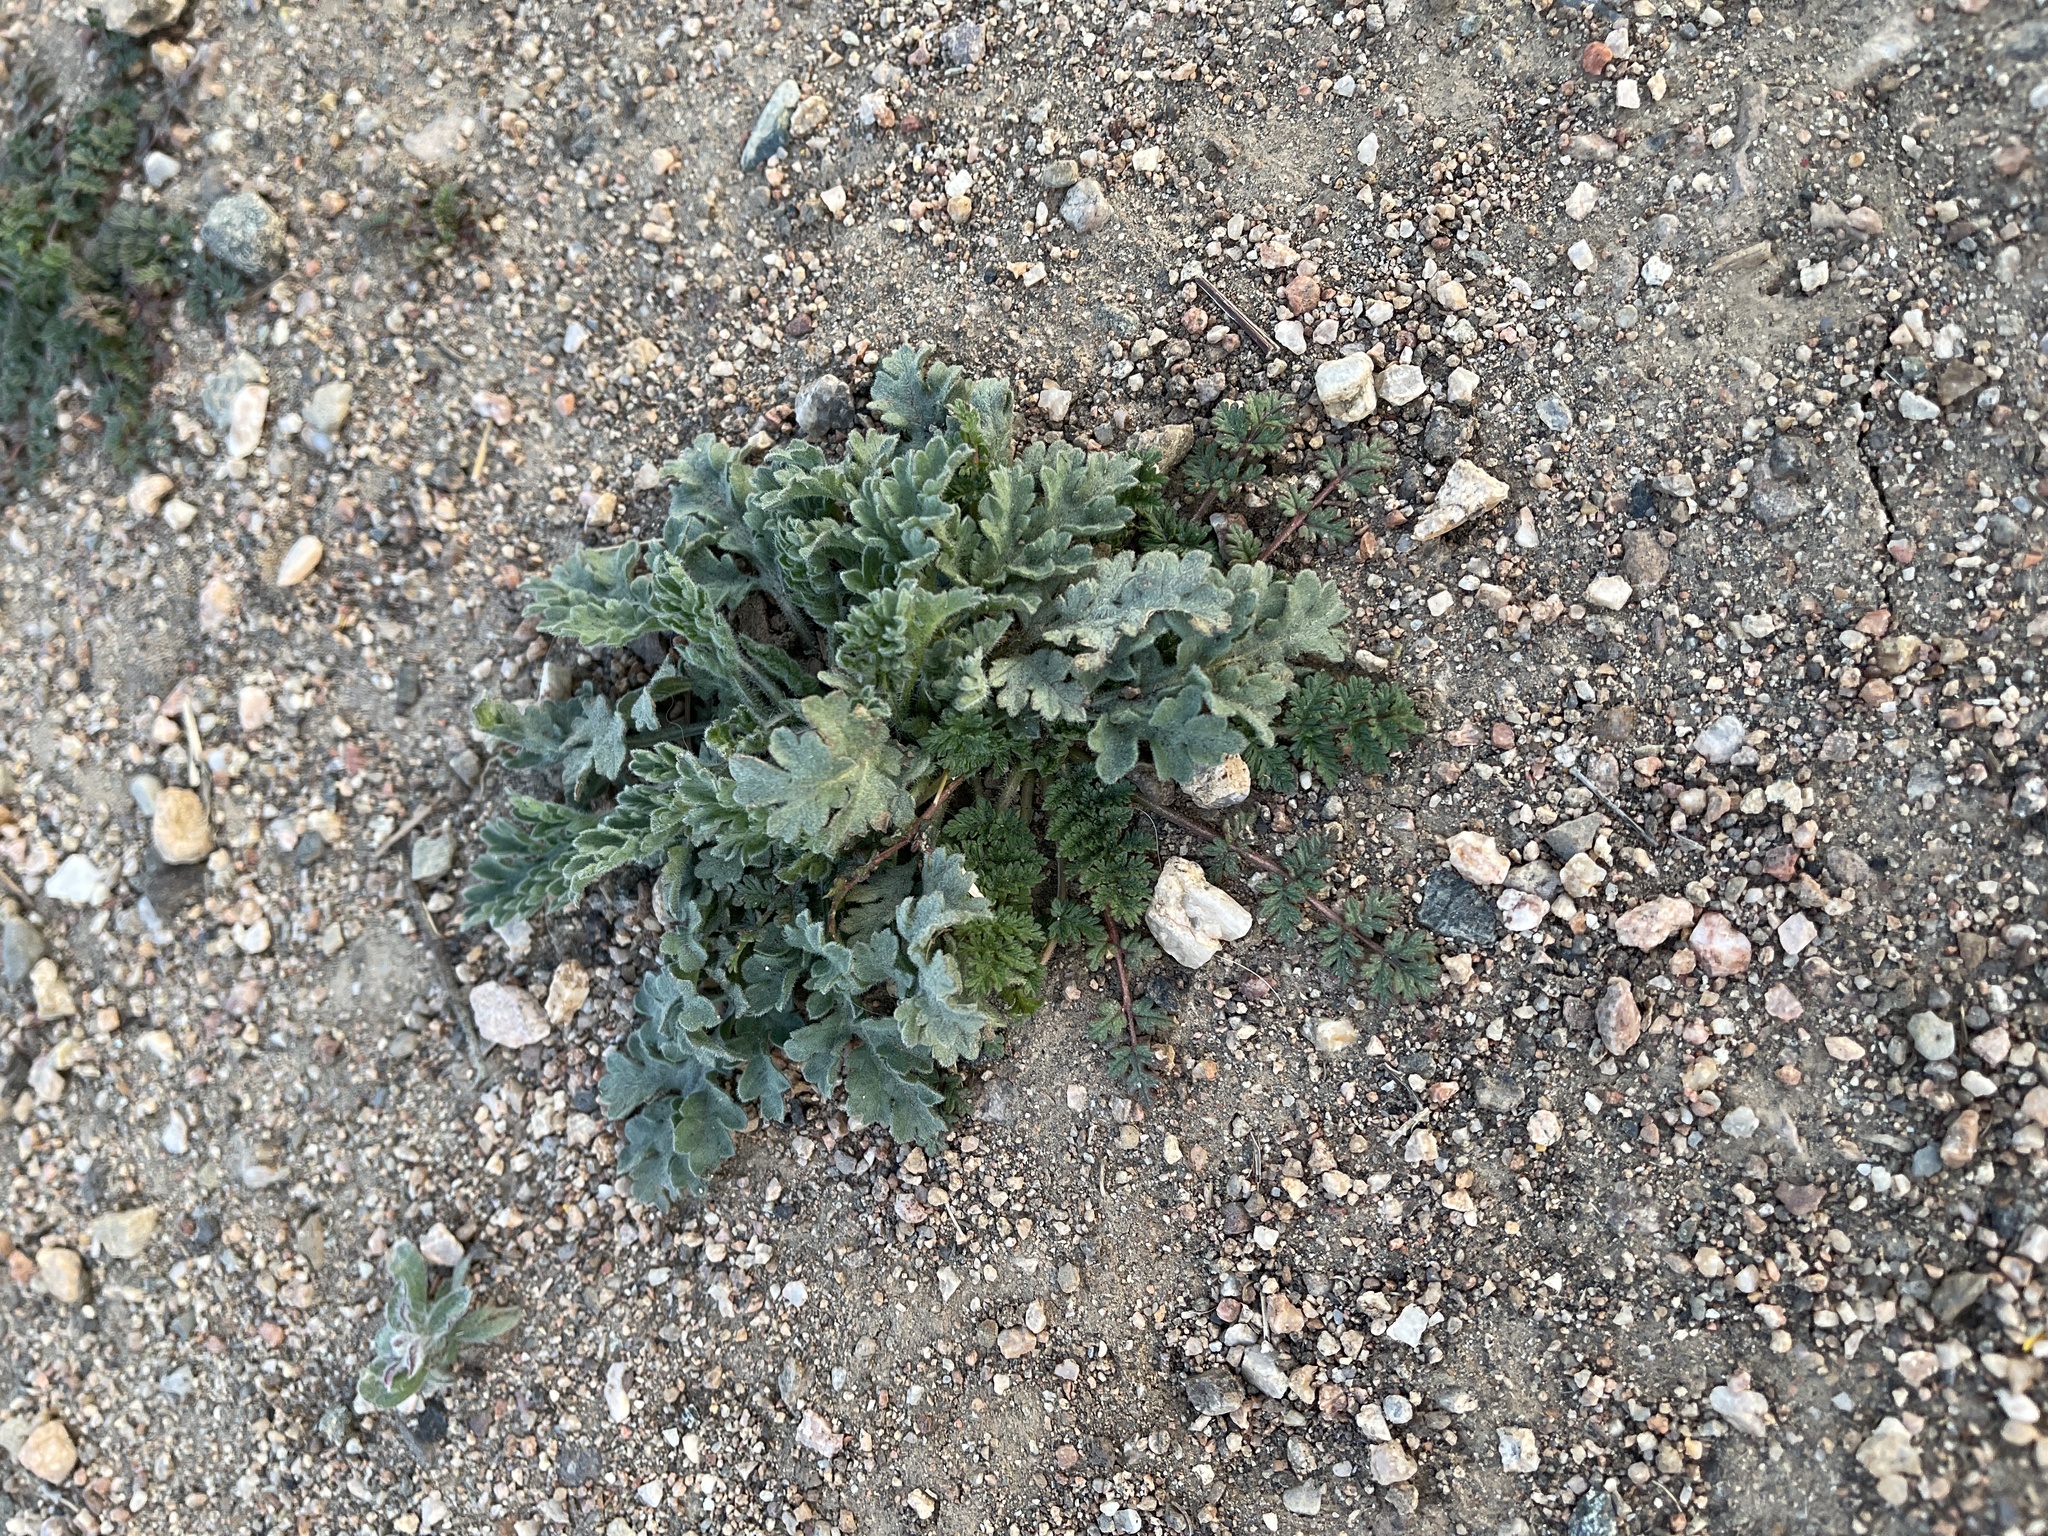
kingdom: Plantae
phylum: Tracheophyta
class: Magnoliopsida
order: Boraginales
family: Hydrophyllaceae
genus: Phacelia
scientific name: Phacelia crenulata
